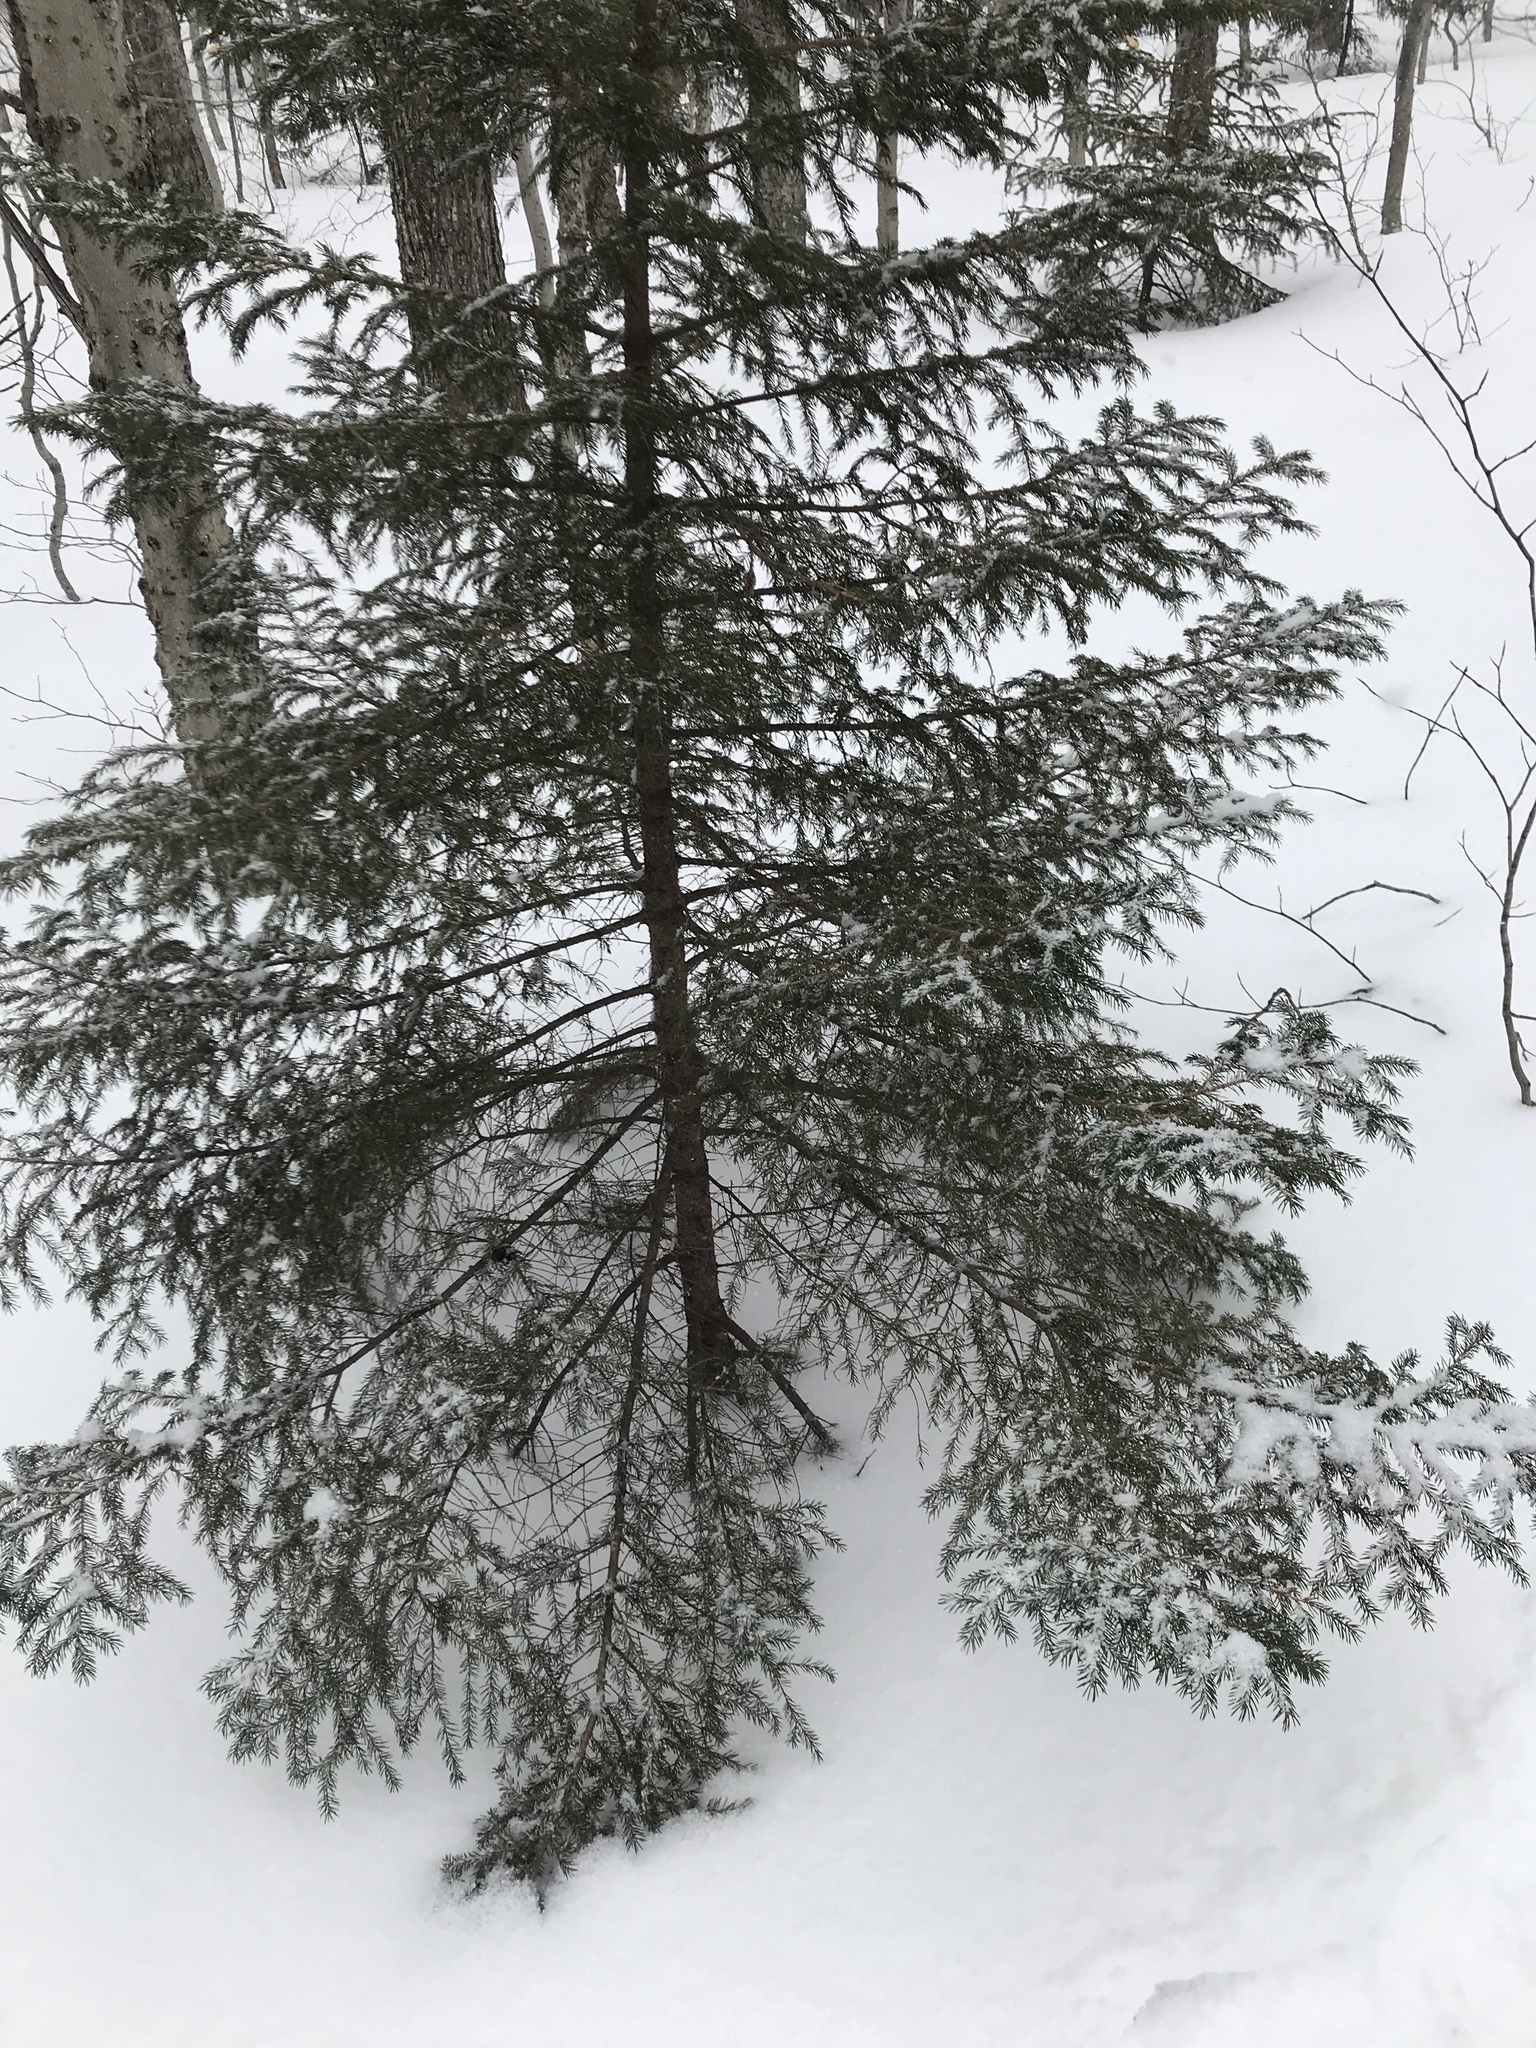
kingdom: Plantae
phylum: Tracheophyta
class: Pinopsida
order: Pinales
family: Pinaceae
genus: Picea
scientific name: Picea rubens
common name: Red spruce
